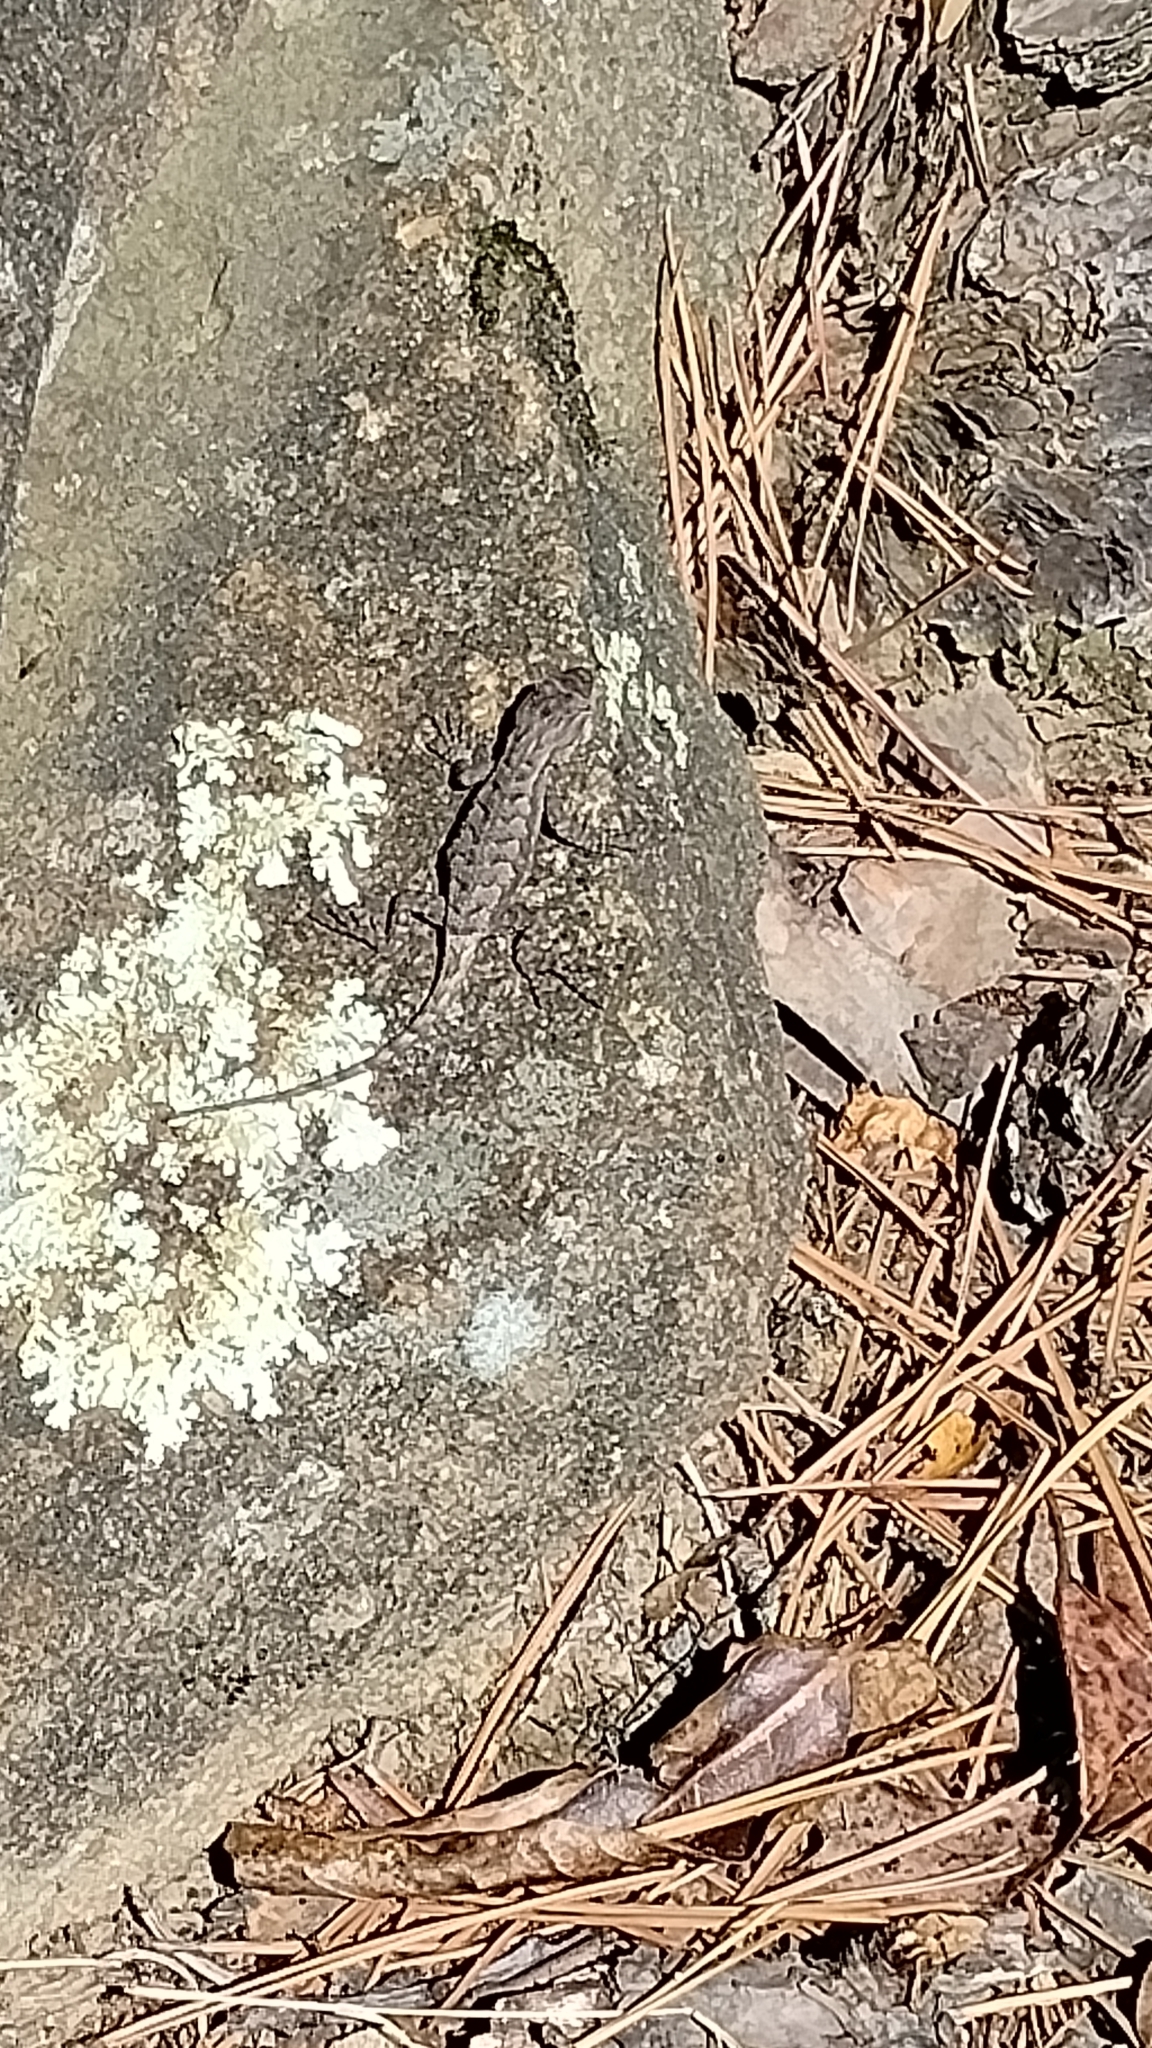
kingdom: Animalia
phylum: Chordata
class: Squamata
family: Phrynosomatidae
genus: Sceloporus
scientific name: Sceloporus consobrinus
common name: Southern prairie lizard
